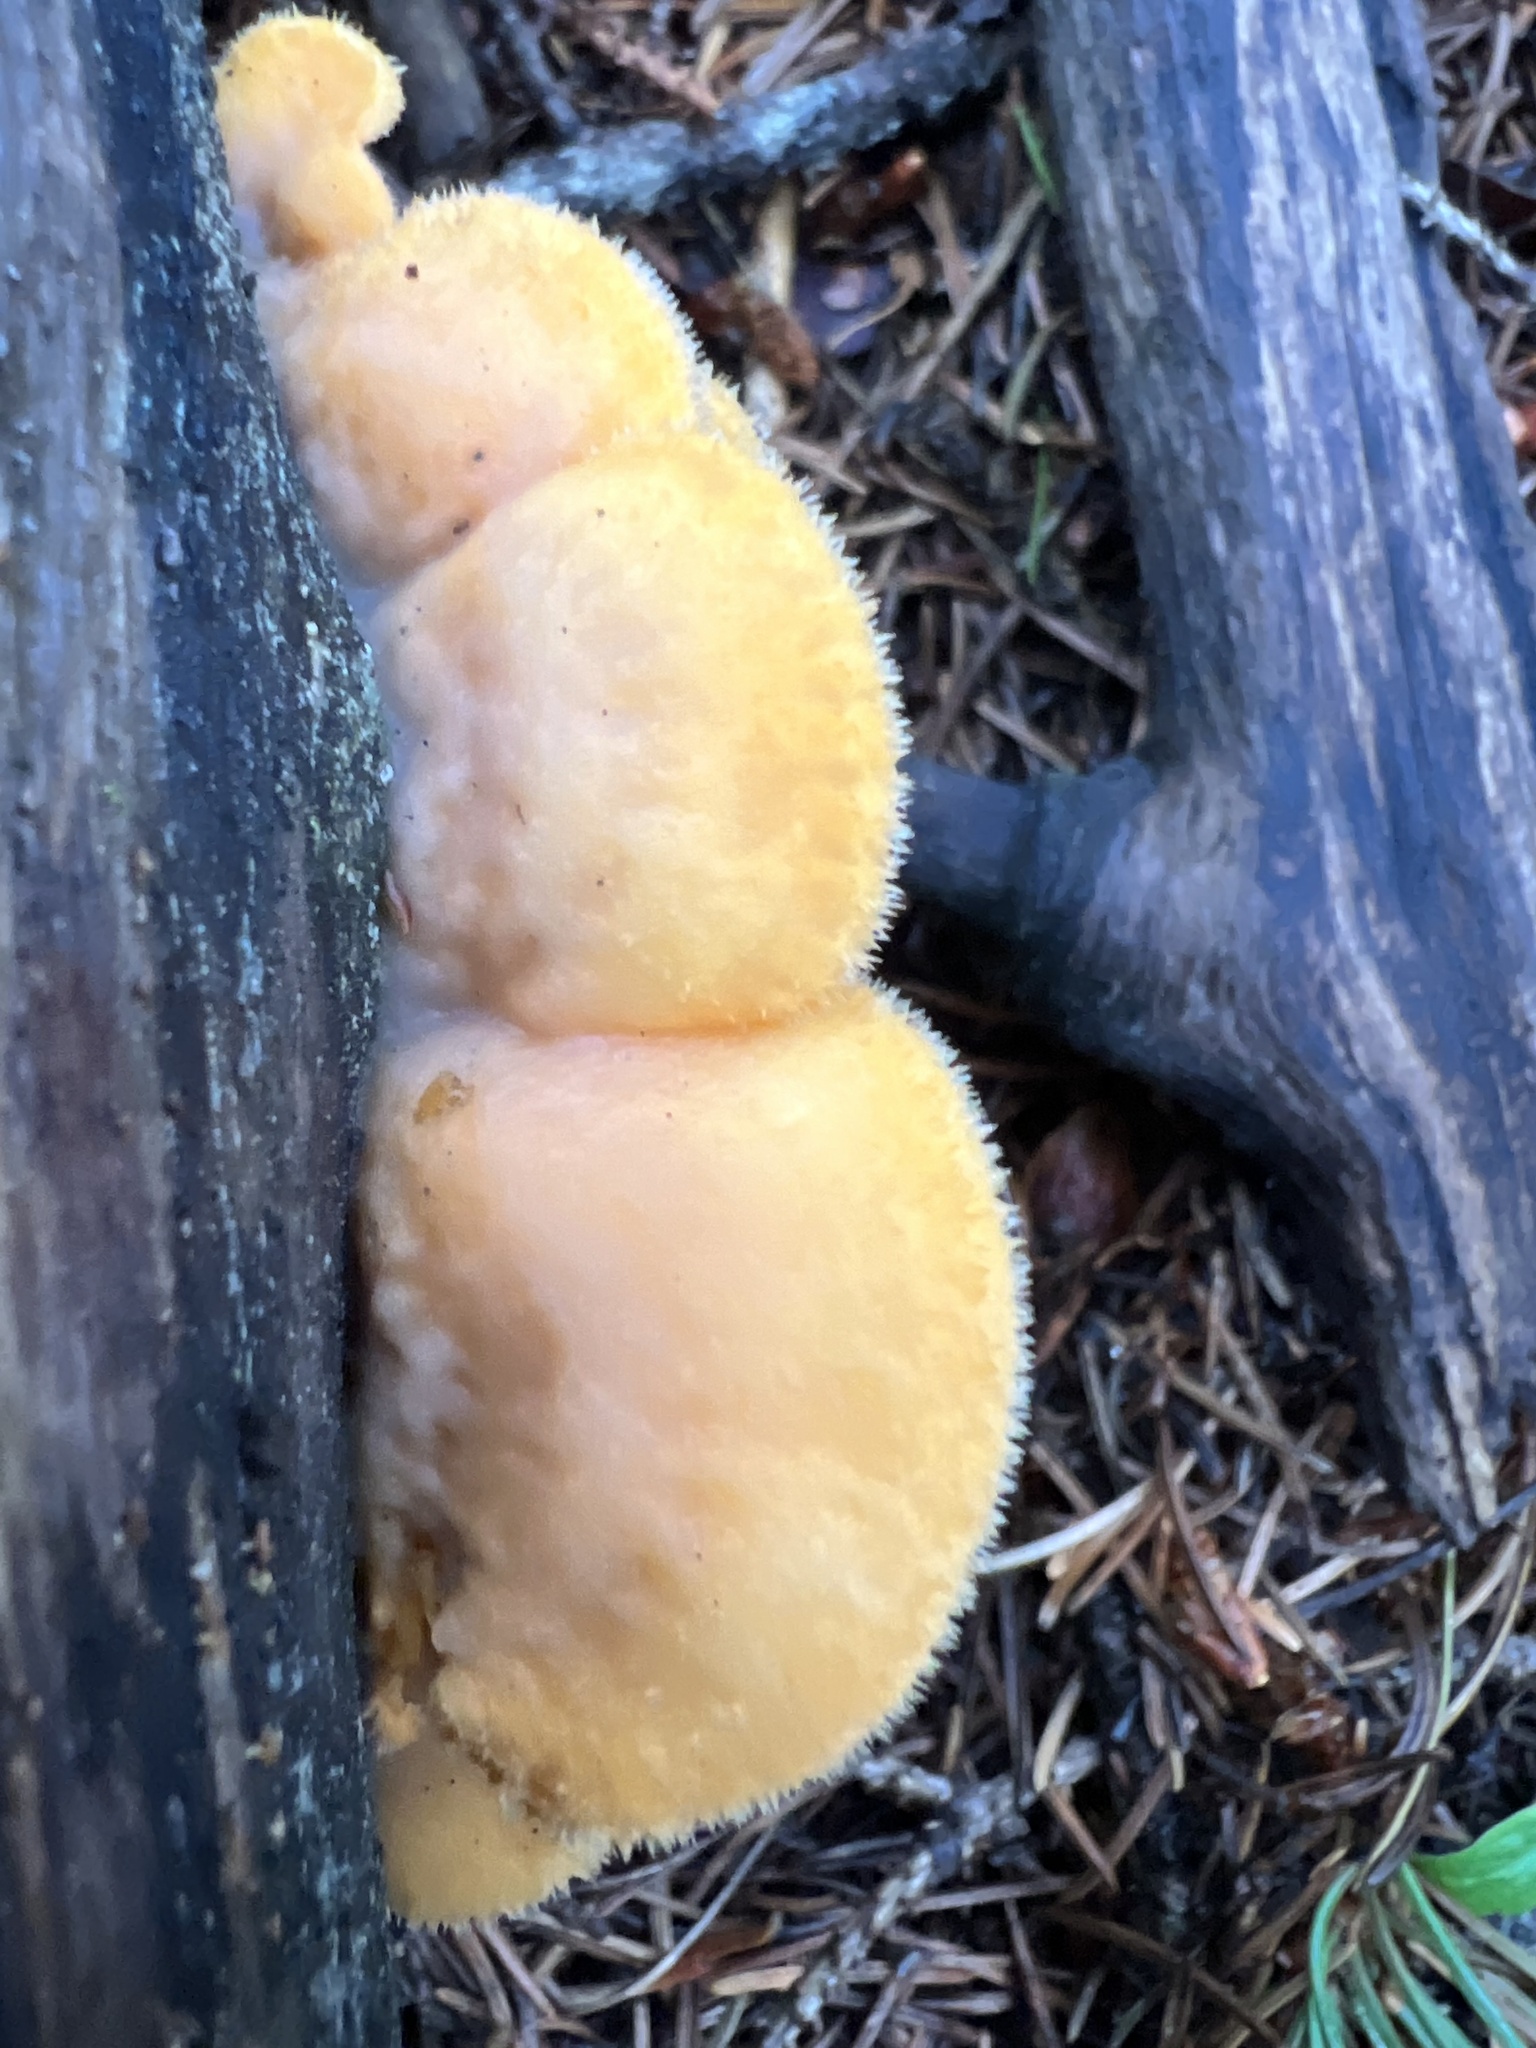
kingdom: Fungi
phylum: Basidiomycota
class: Agaricomycetes
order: Agaricales
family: Phyllotopsidaceae
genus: Phyllotopsis
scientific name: Phyllotopsis nidulans
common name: Orange mock oyster
